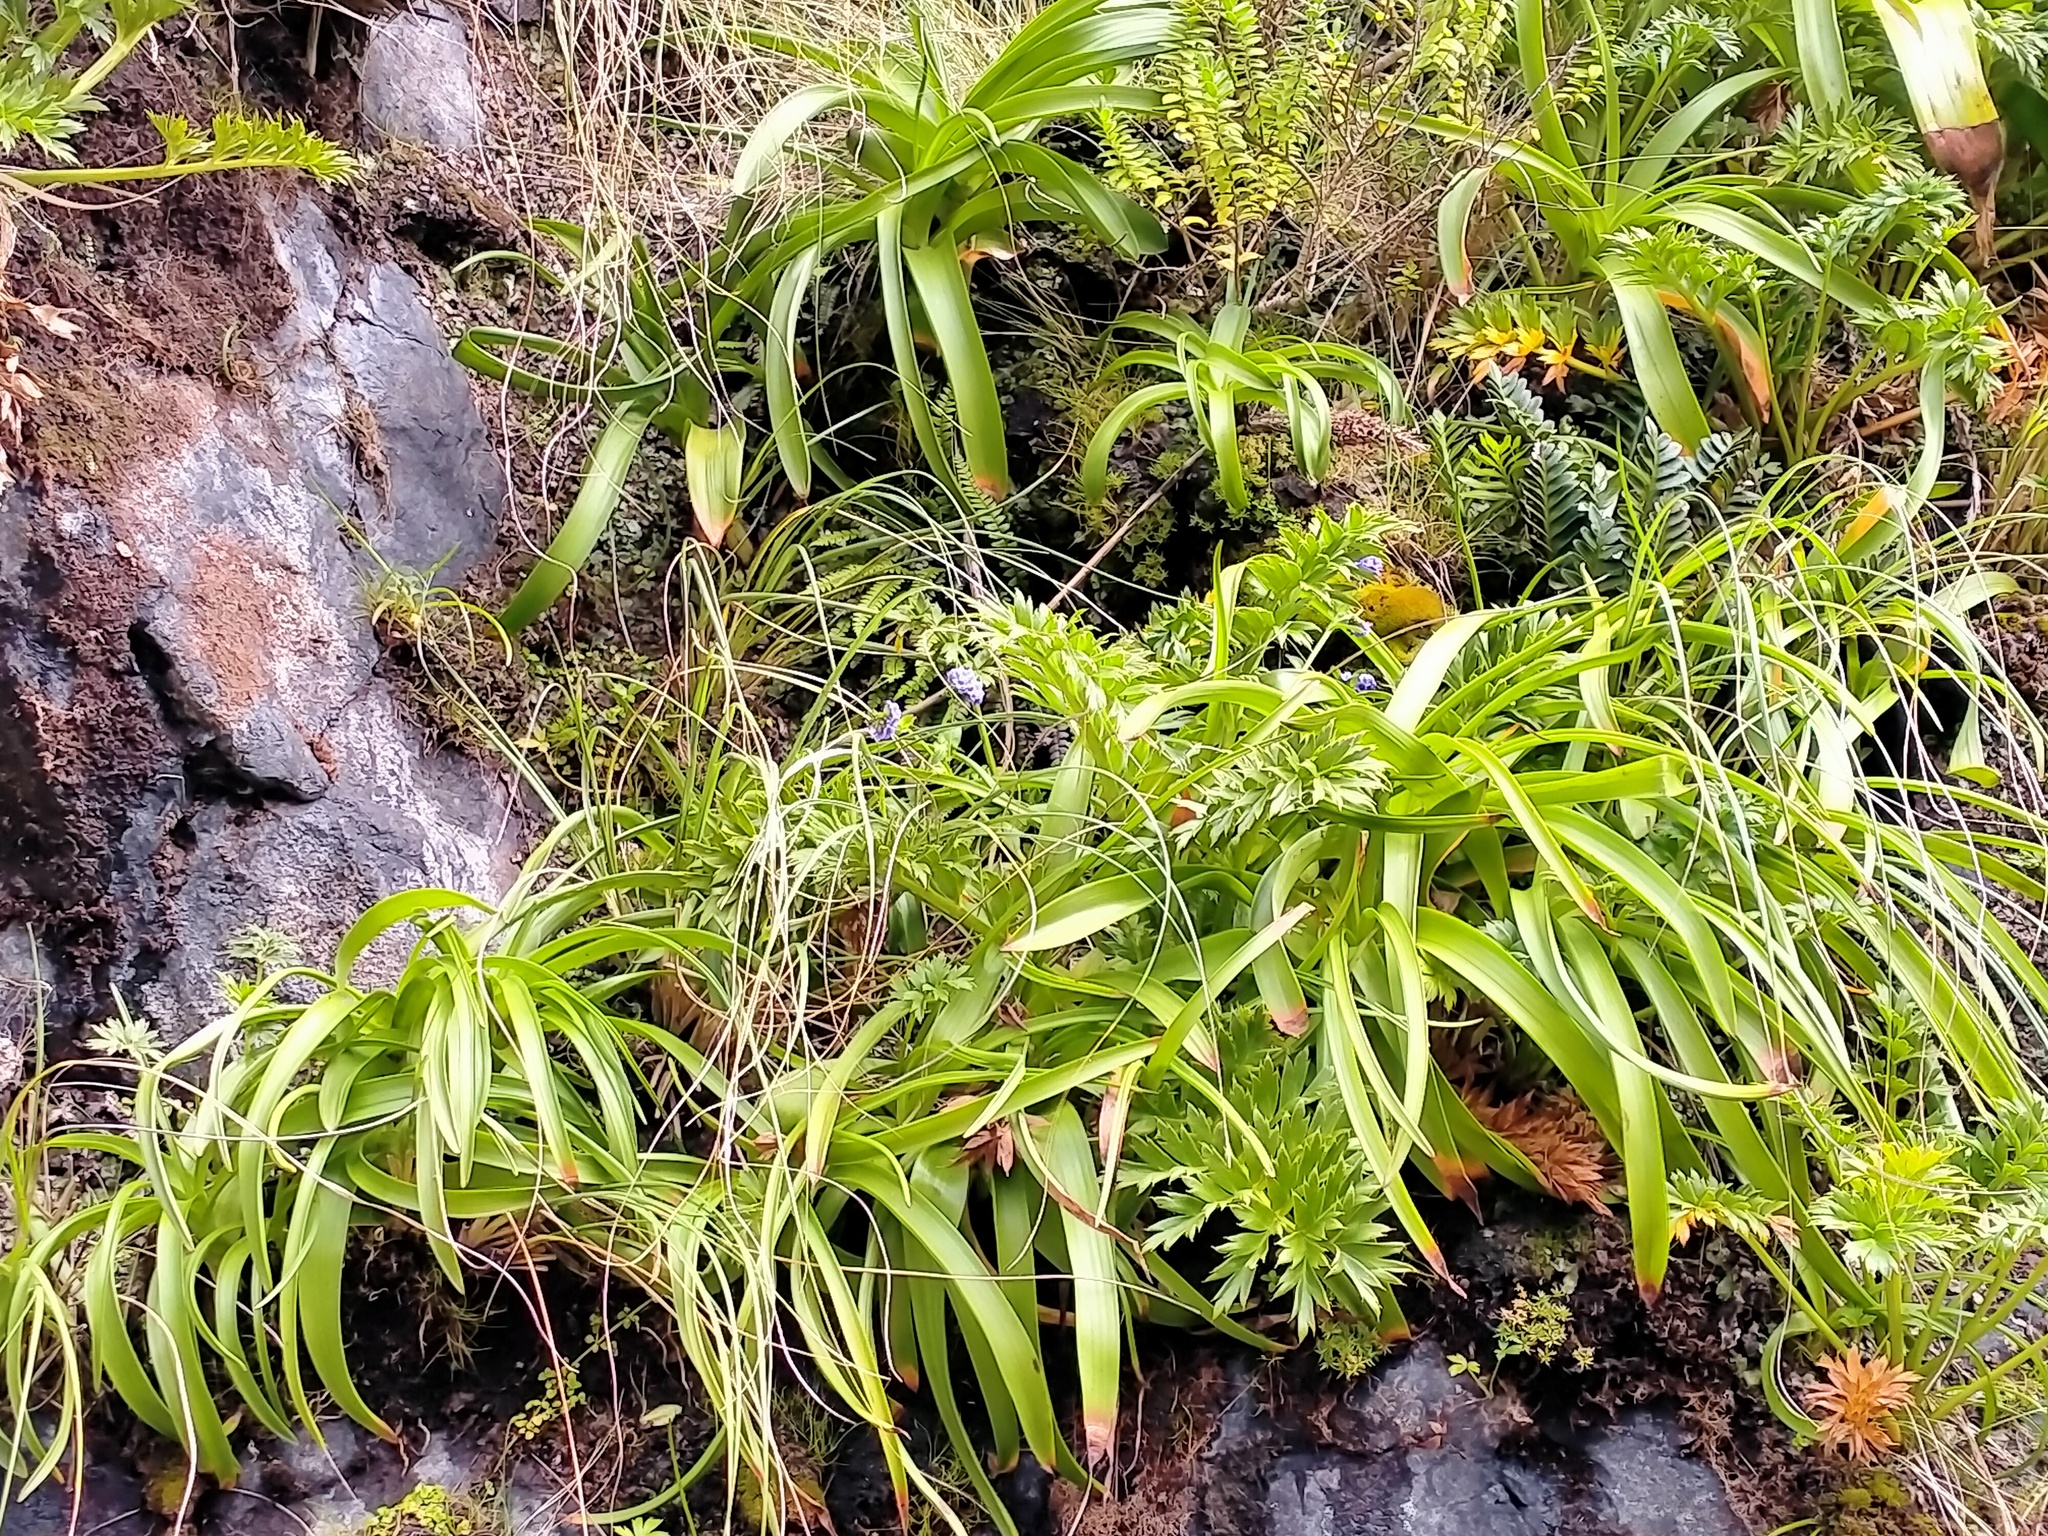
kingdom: Plantae
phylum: Tracheophyta
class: Liliopsida
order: Asparagales
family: Asphodelaceae
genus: Bulbinella
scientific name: Bulbinella rossii
